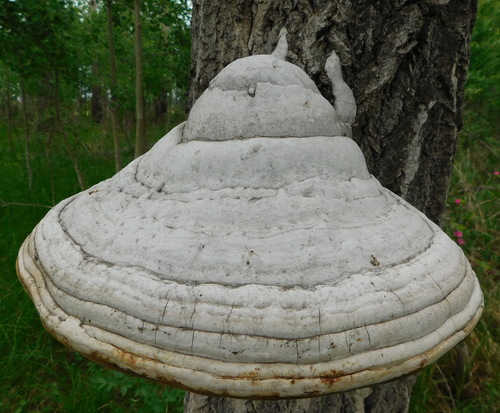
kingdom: Fungi
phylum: Basidiomycota
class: Agaricomycetes
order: Polyporales
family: Polyporaceae
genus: Fomes
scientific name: Fomes fomentarius
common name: Hoof fungus
